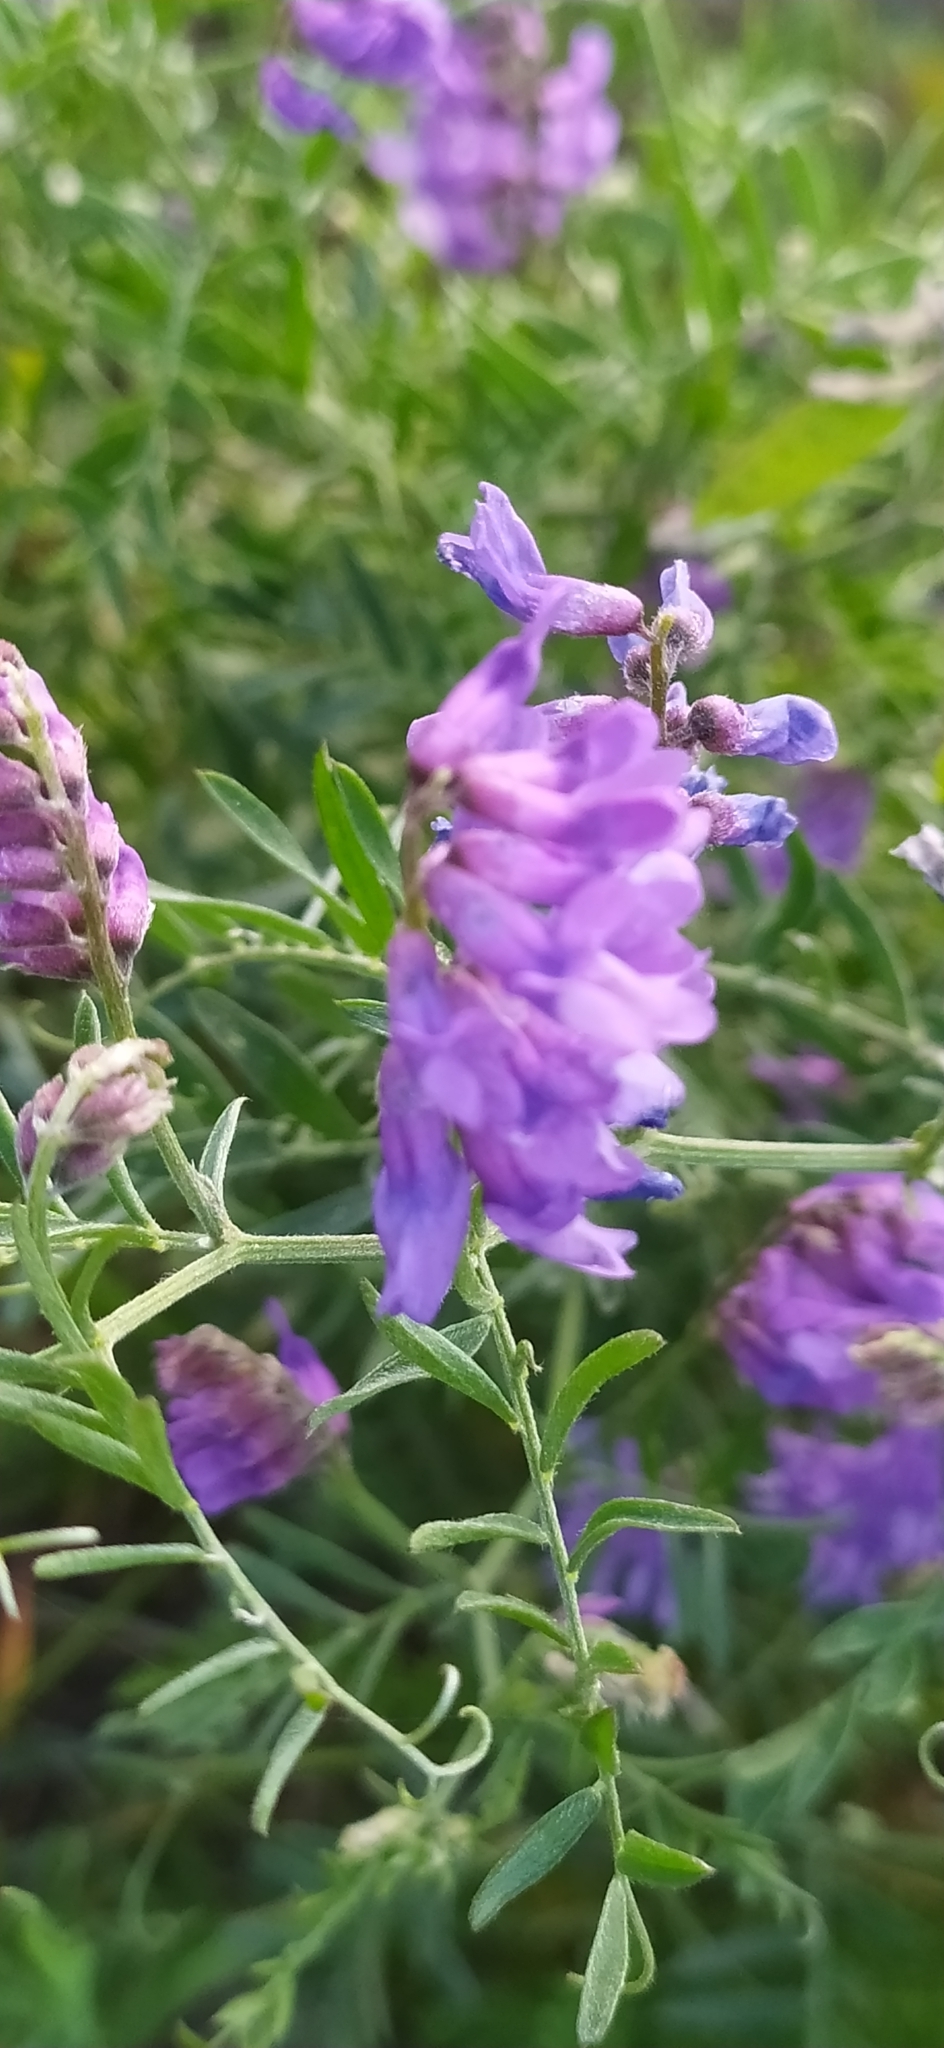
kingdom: Plantae
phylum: Tracheophyta
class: Magnoliopsida
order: Fabales
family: Fabaceae
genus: Vicia
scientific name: Vicia cracca
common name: Bird vetch
